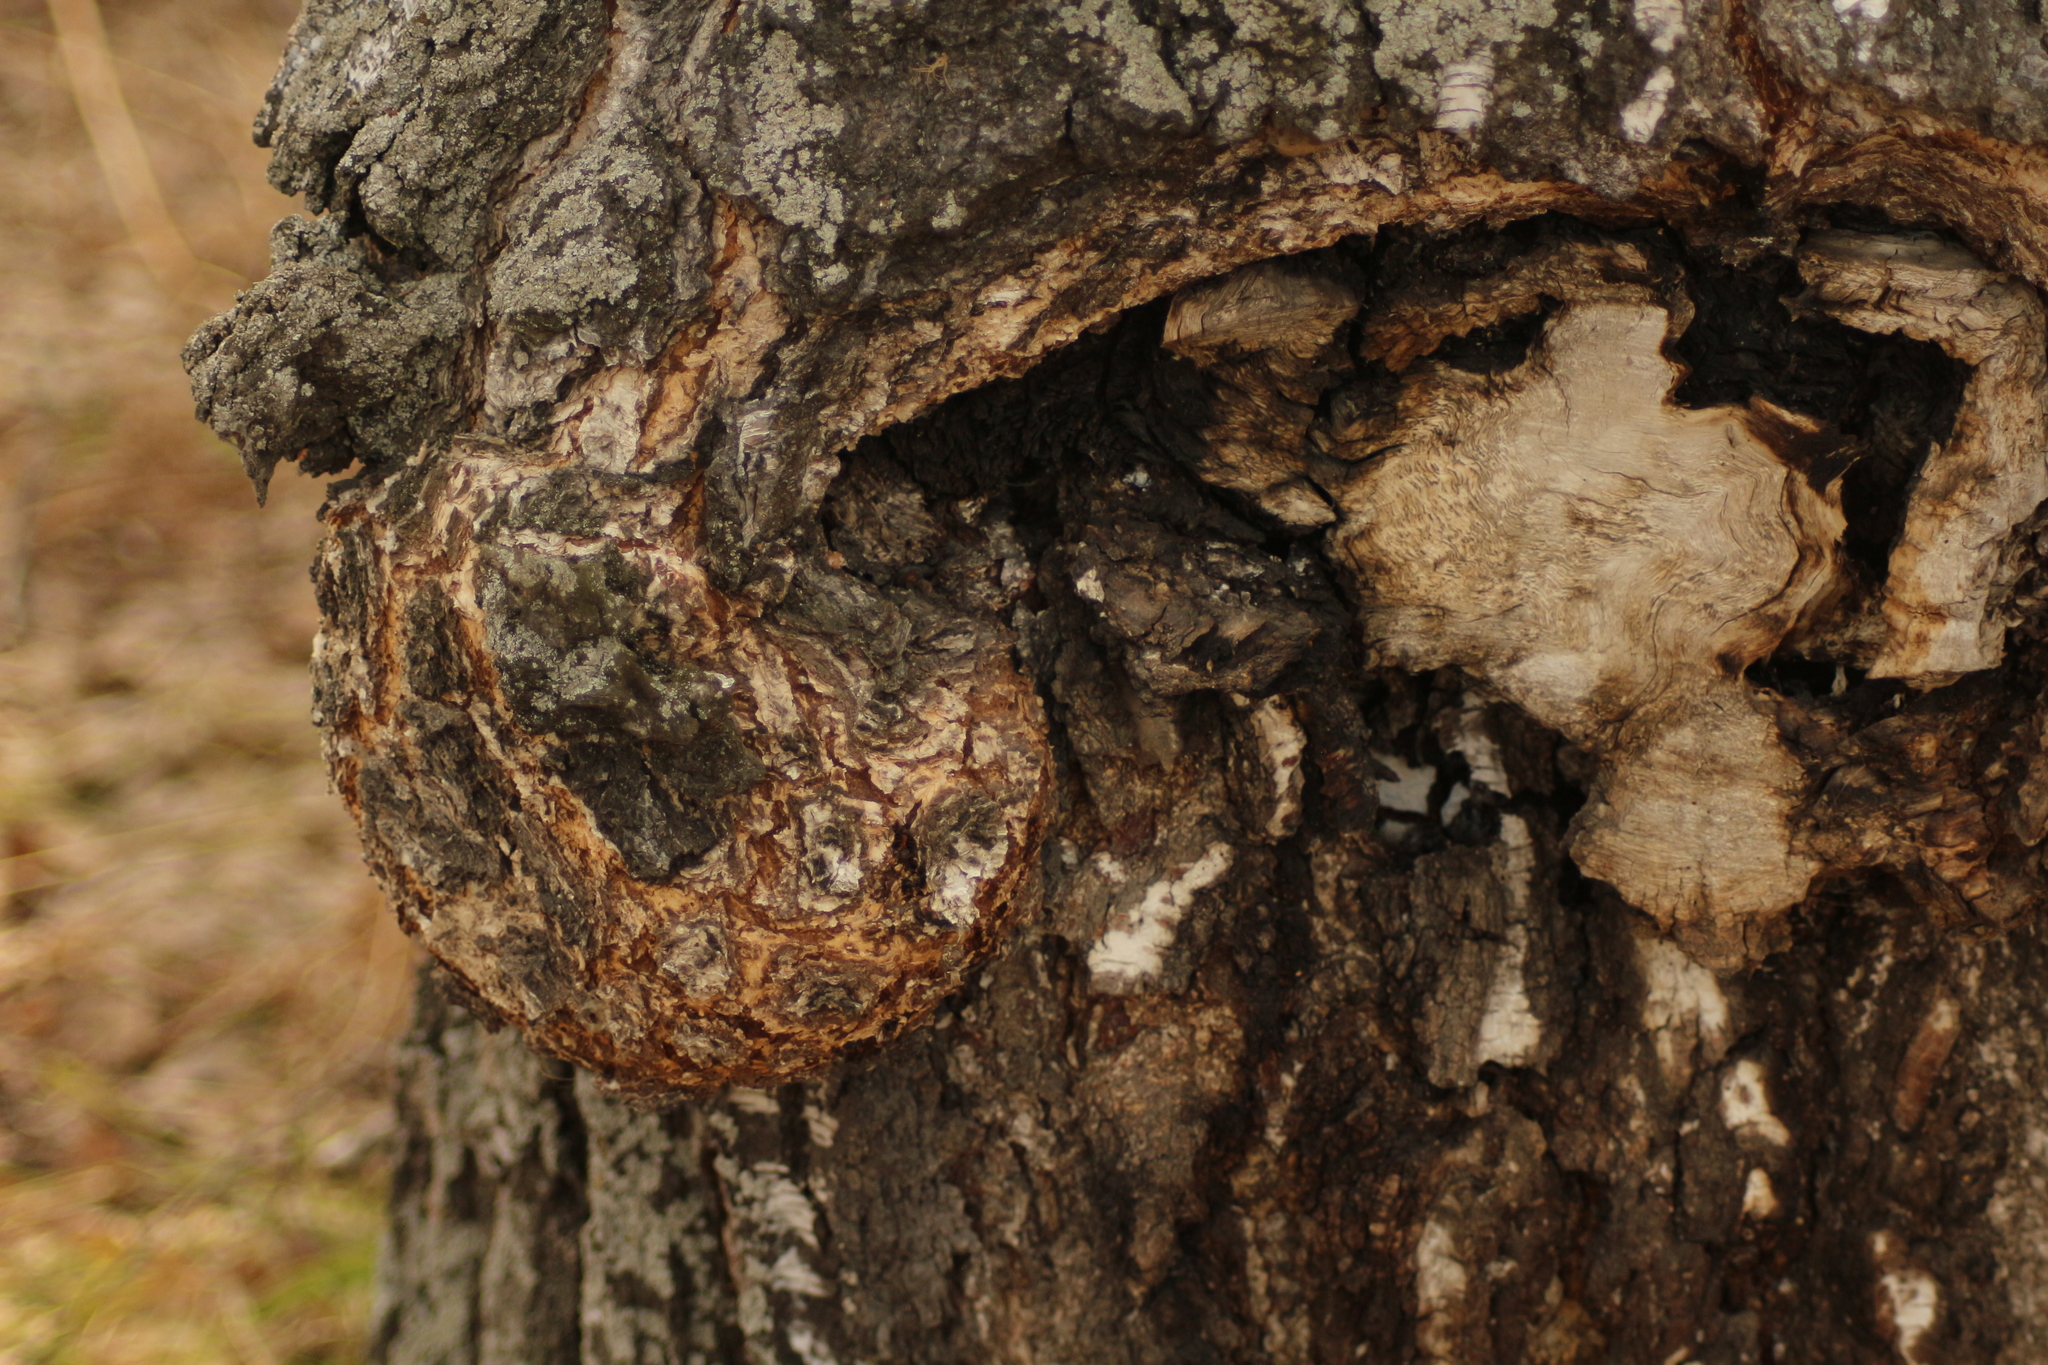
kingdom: Bacteria
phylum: Proteobacteria
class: Alphaproteobacteria
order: Rhizobiales
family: Rhizobiaceae
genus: Rhizobium
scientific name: Rhizobium Agrobacterium radiobacter
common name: Bacterial crown gall
